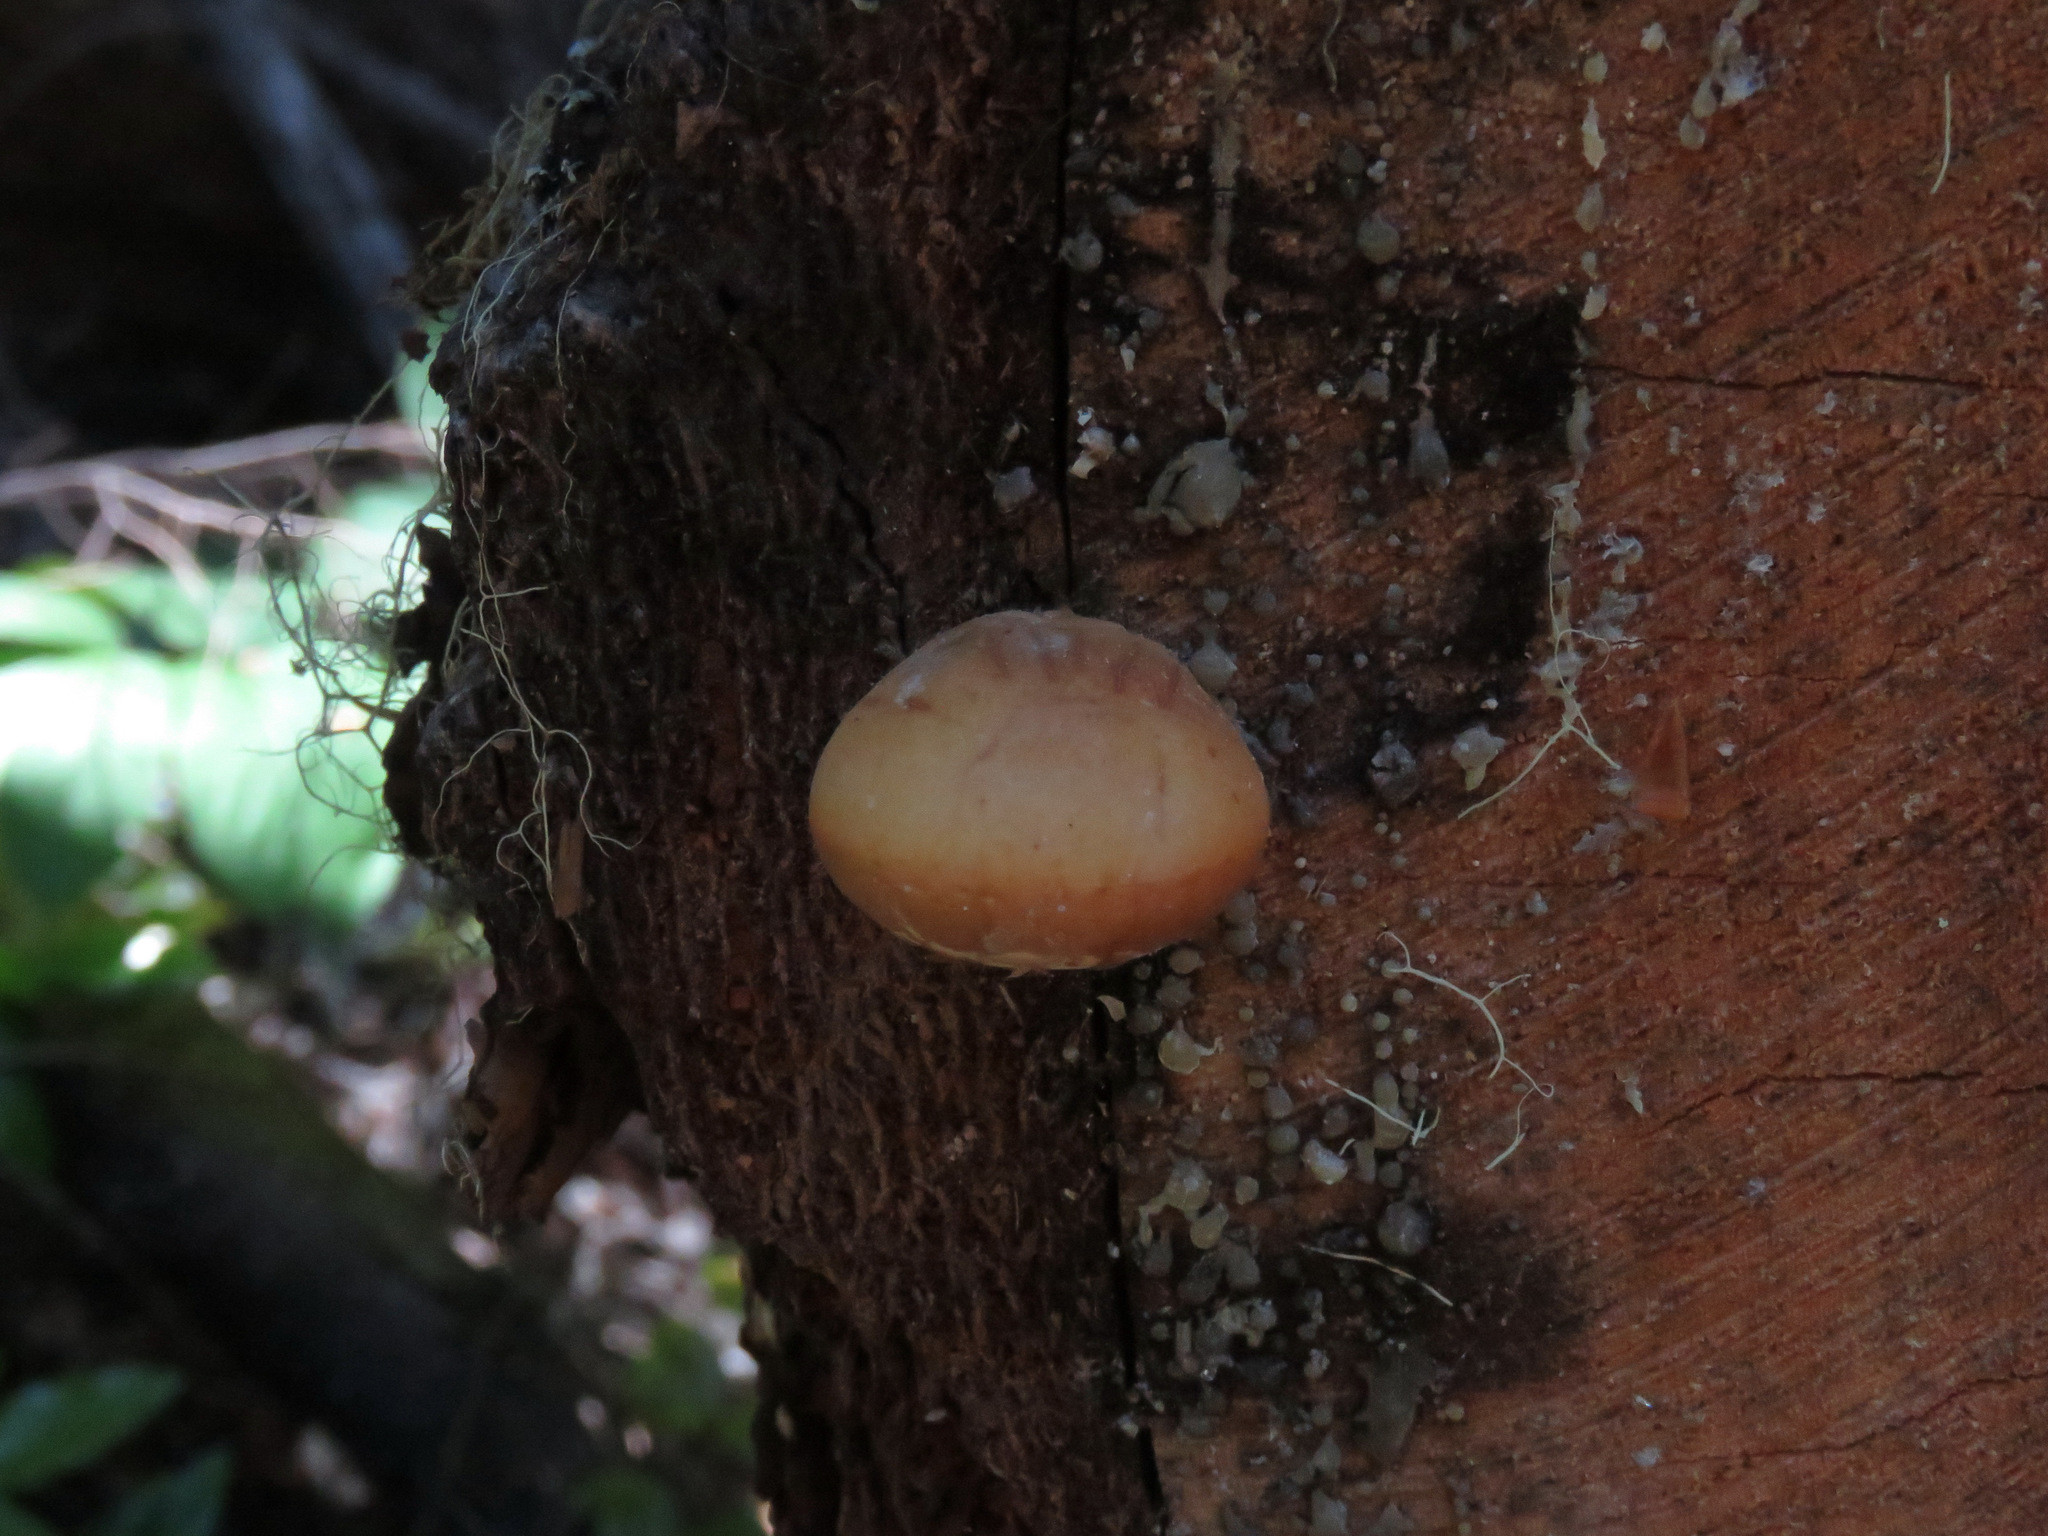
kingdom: Fungi
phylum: Basidiomycota
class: Agaricomycetes
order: Polyporales
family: Polyporaceae
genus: Cryptoporus
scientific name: Cryptoporus volvatus
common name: Veiled polypore
